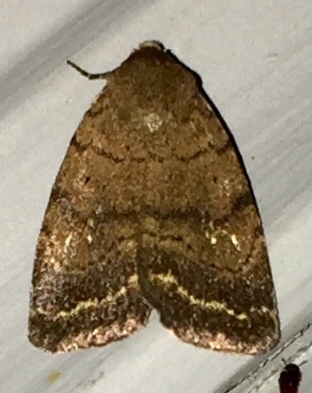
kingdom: Animalia
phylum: Arthropoda
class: Insecta
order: Lepidoptera
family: Noctuidae
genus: Athetis
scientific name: Athetis tarda
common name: Slowpoke moth
